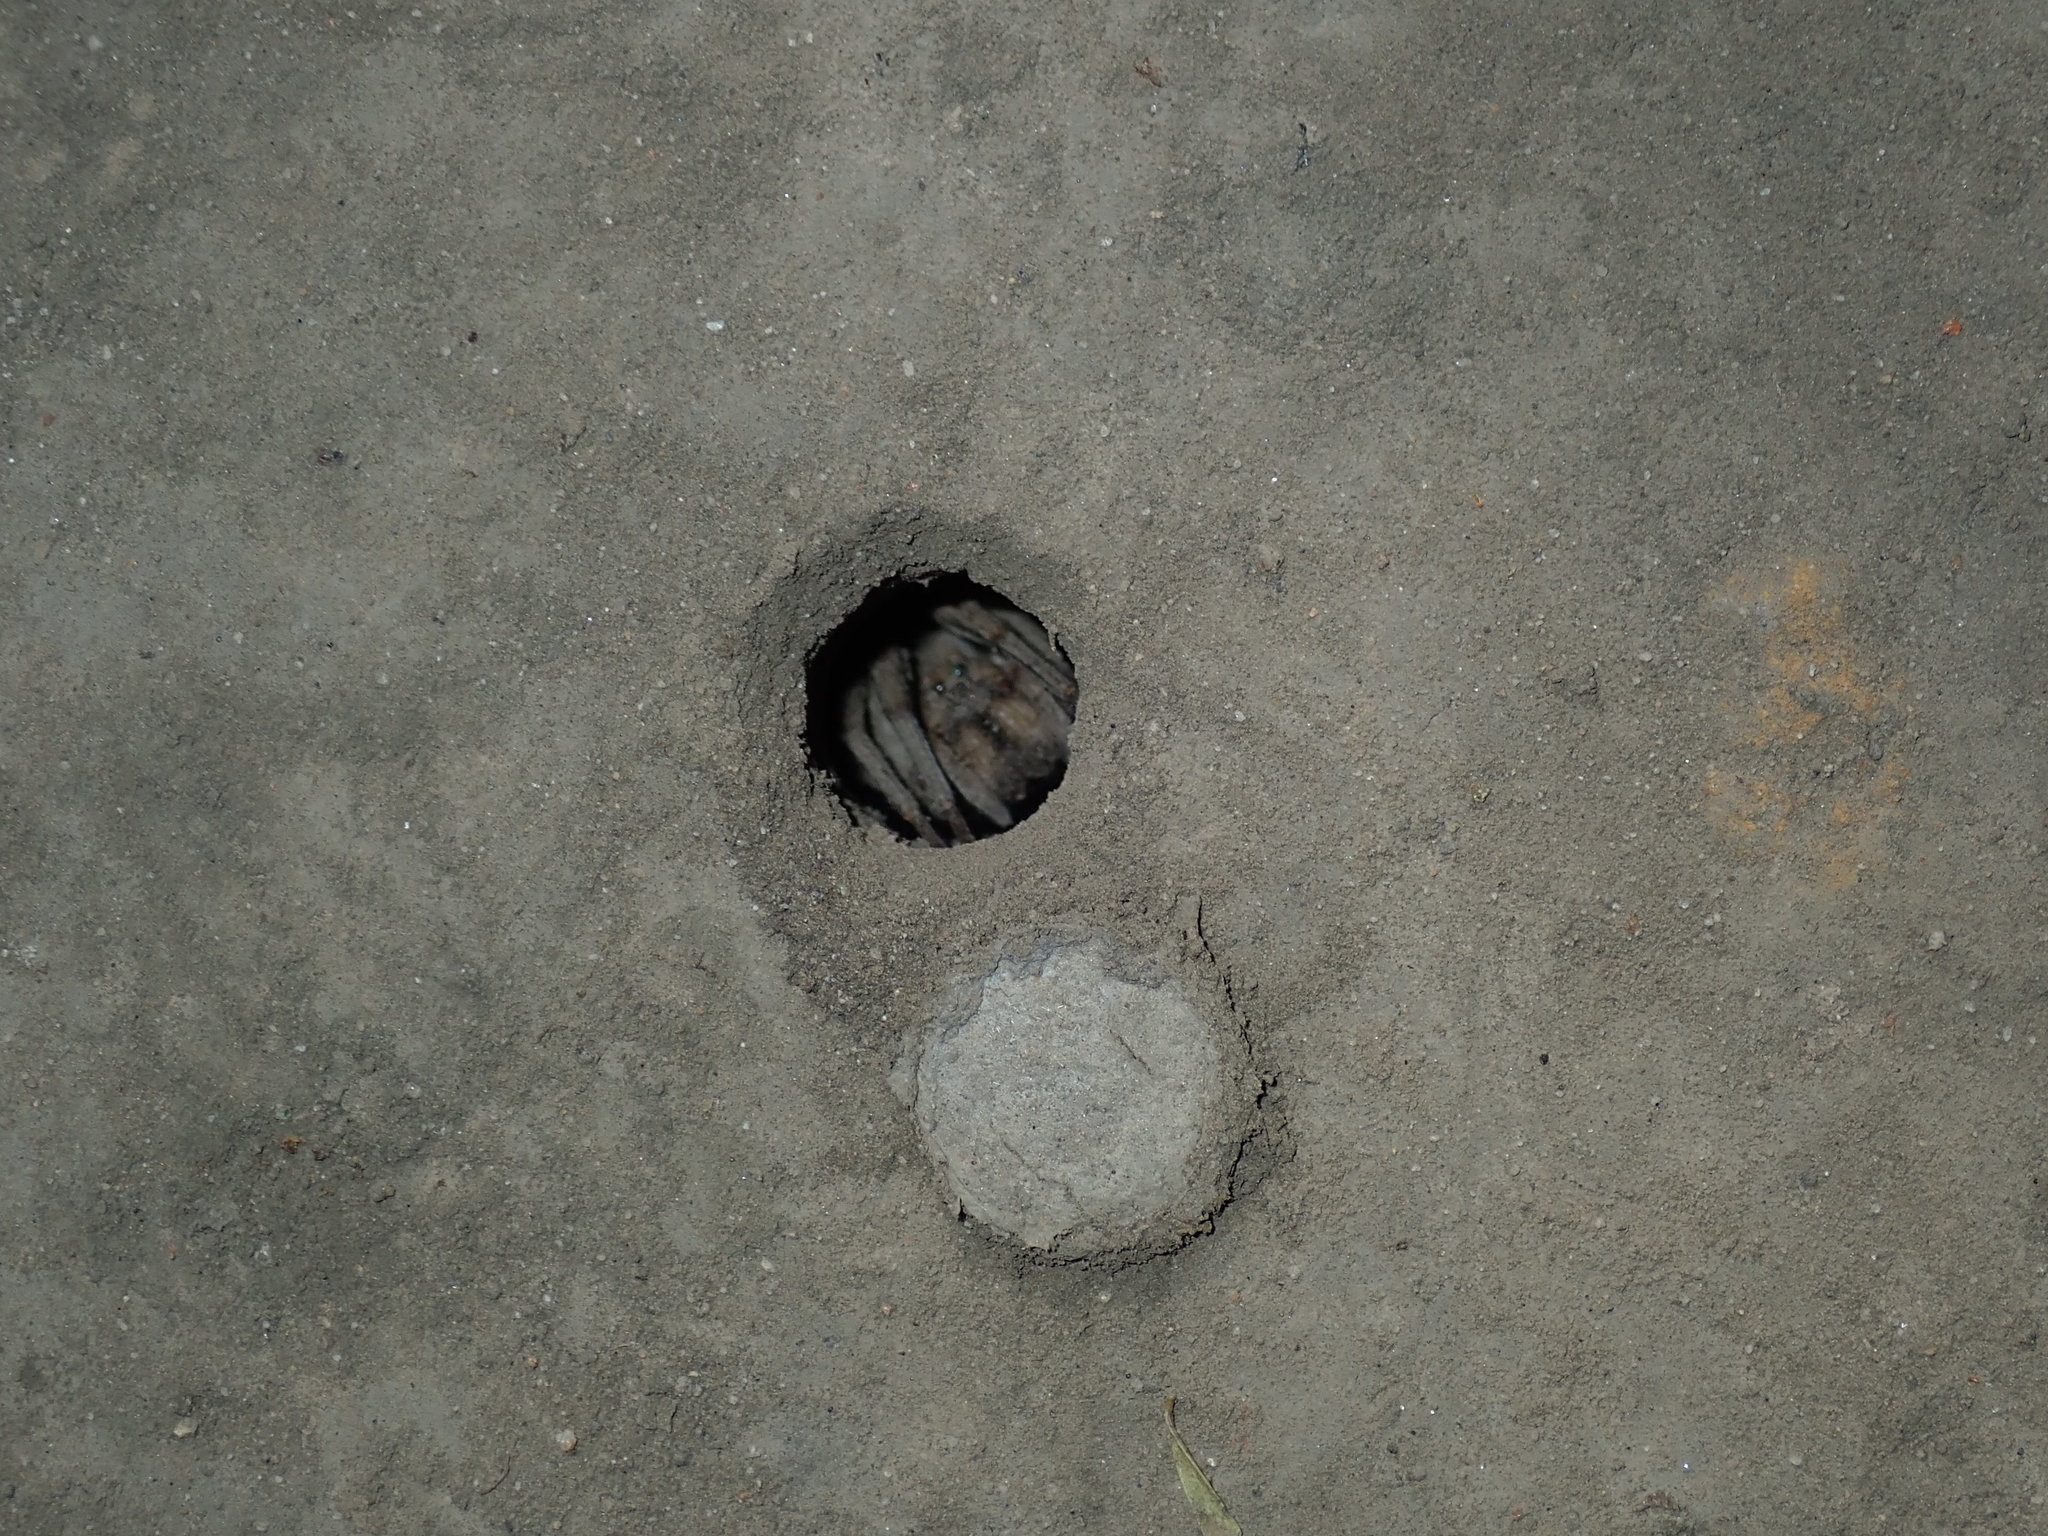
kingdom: Animalia
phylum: Arthropoda
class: Arachnida
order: Araneae
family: Lycosidae
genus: Portacosa
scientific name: Portacosa cinerea
